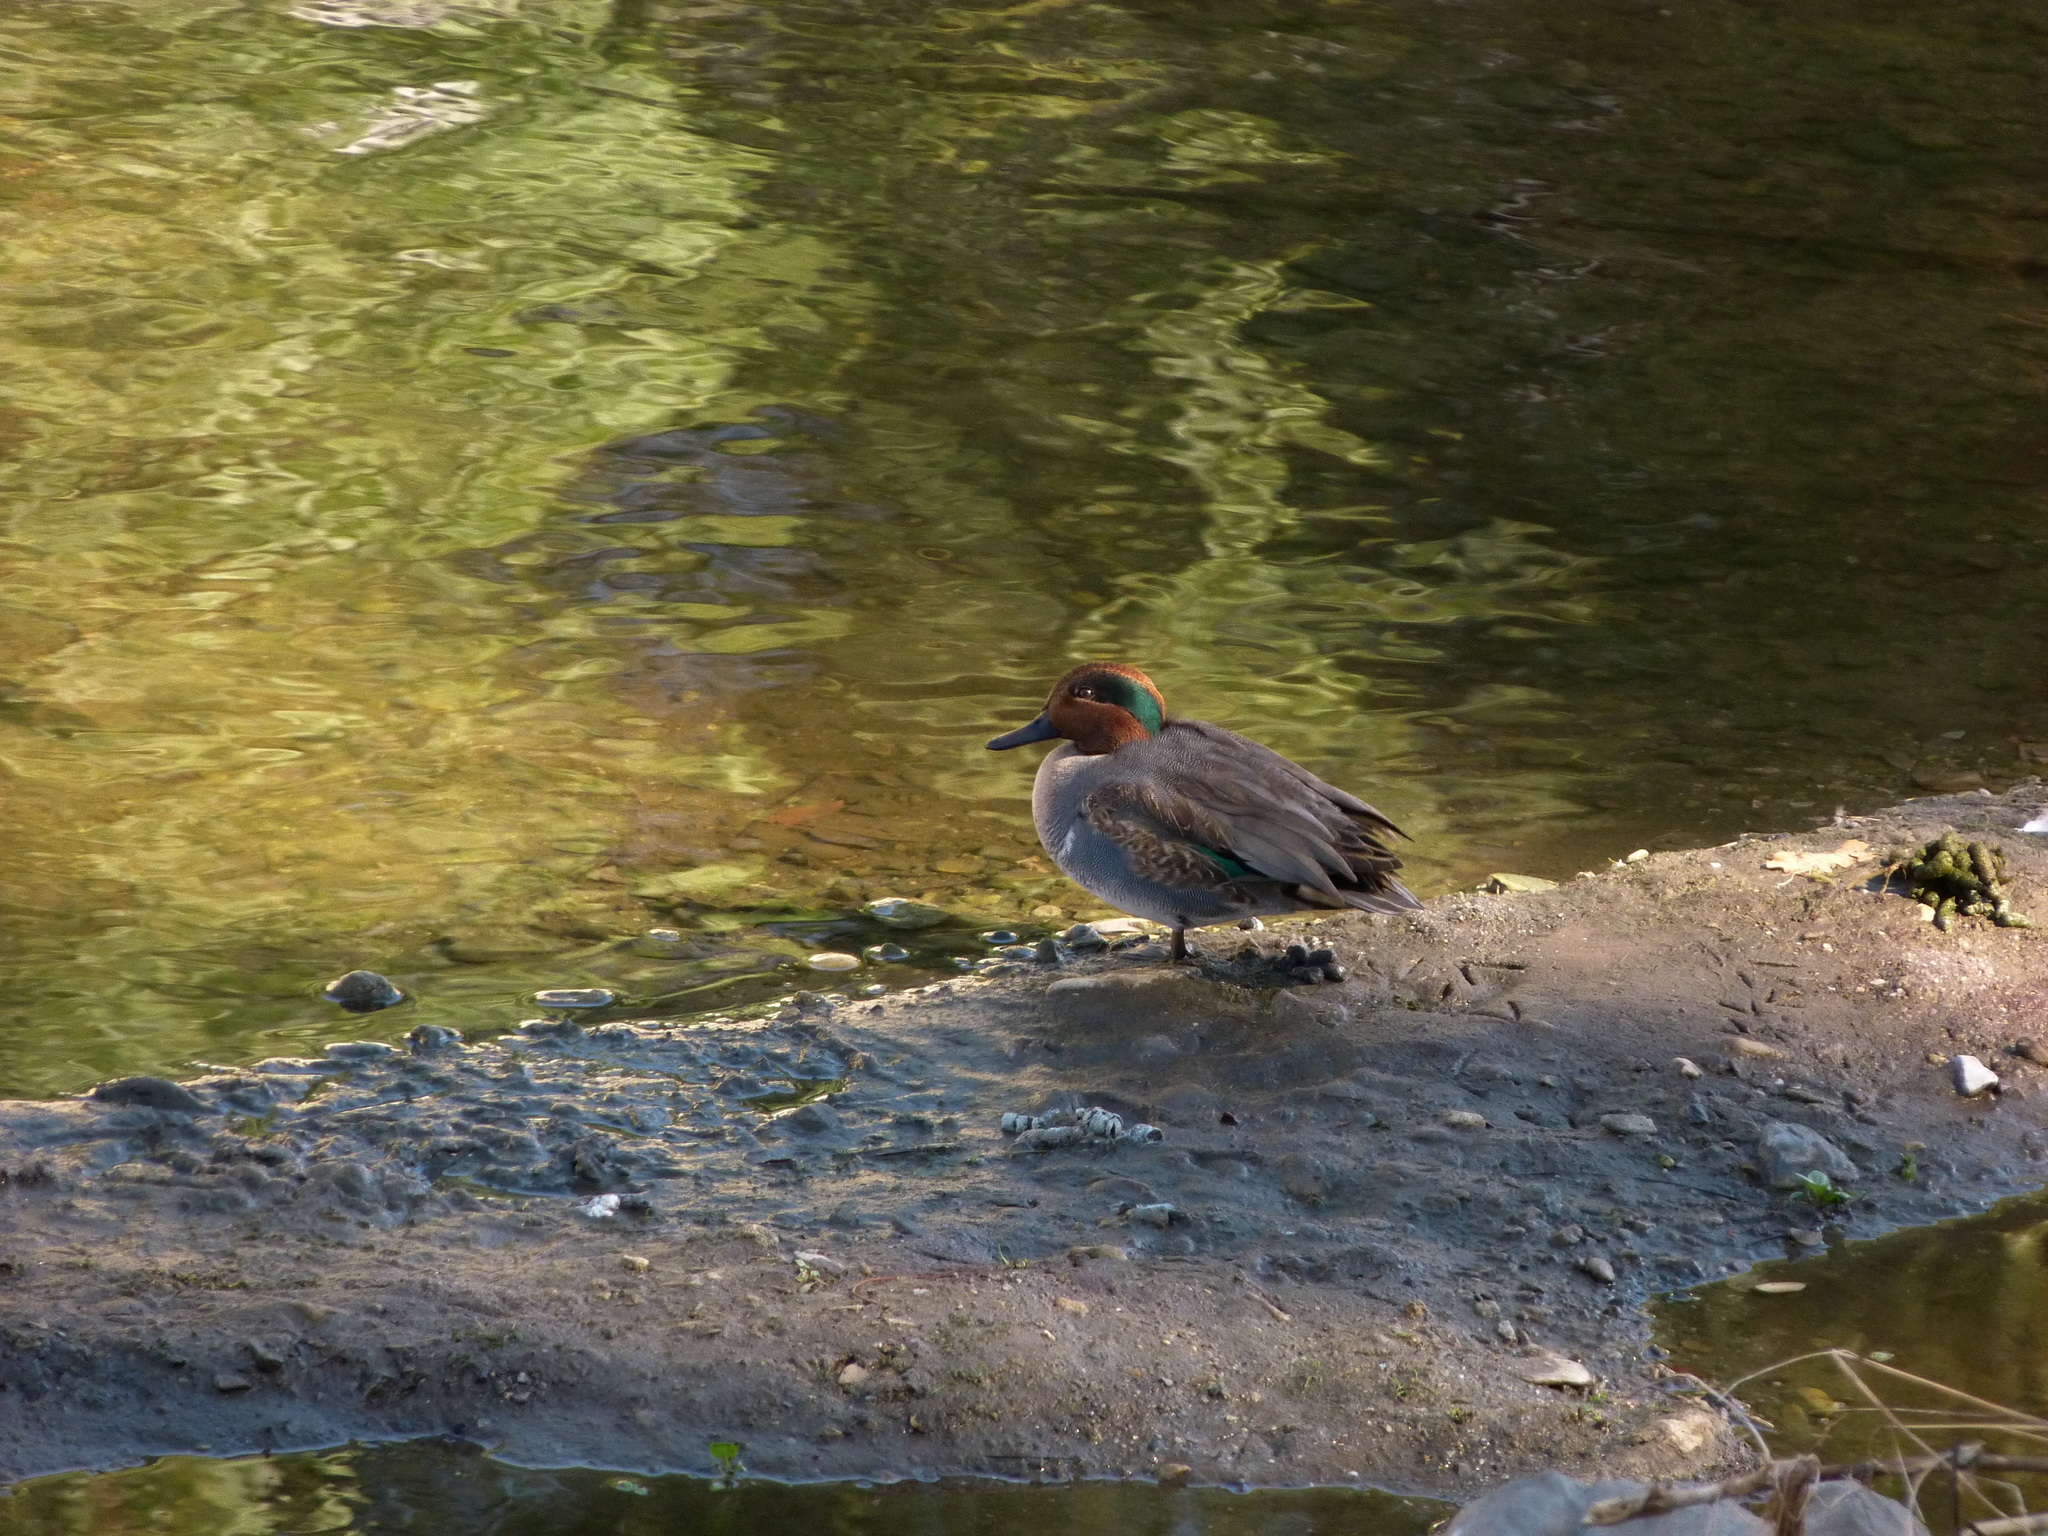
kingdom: Animalia
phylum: Chordata
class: Aves
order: Anseriformes
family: Anatidae
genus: Anas
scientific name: Anas carolinensis
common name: Green-winged teal
